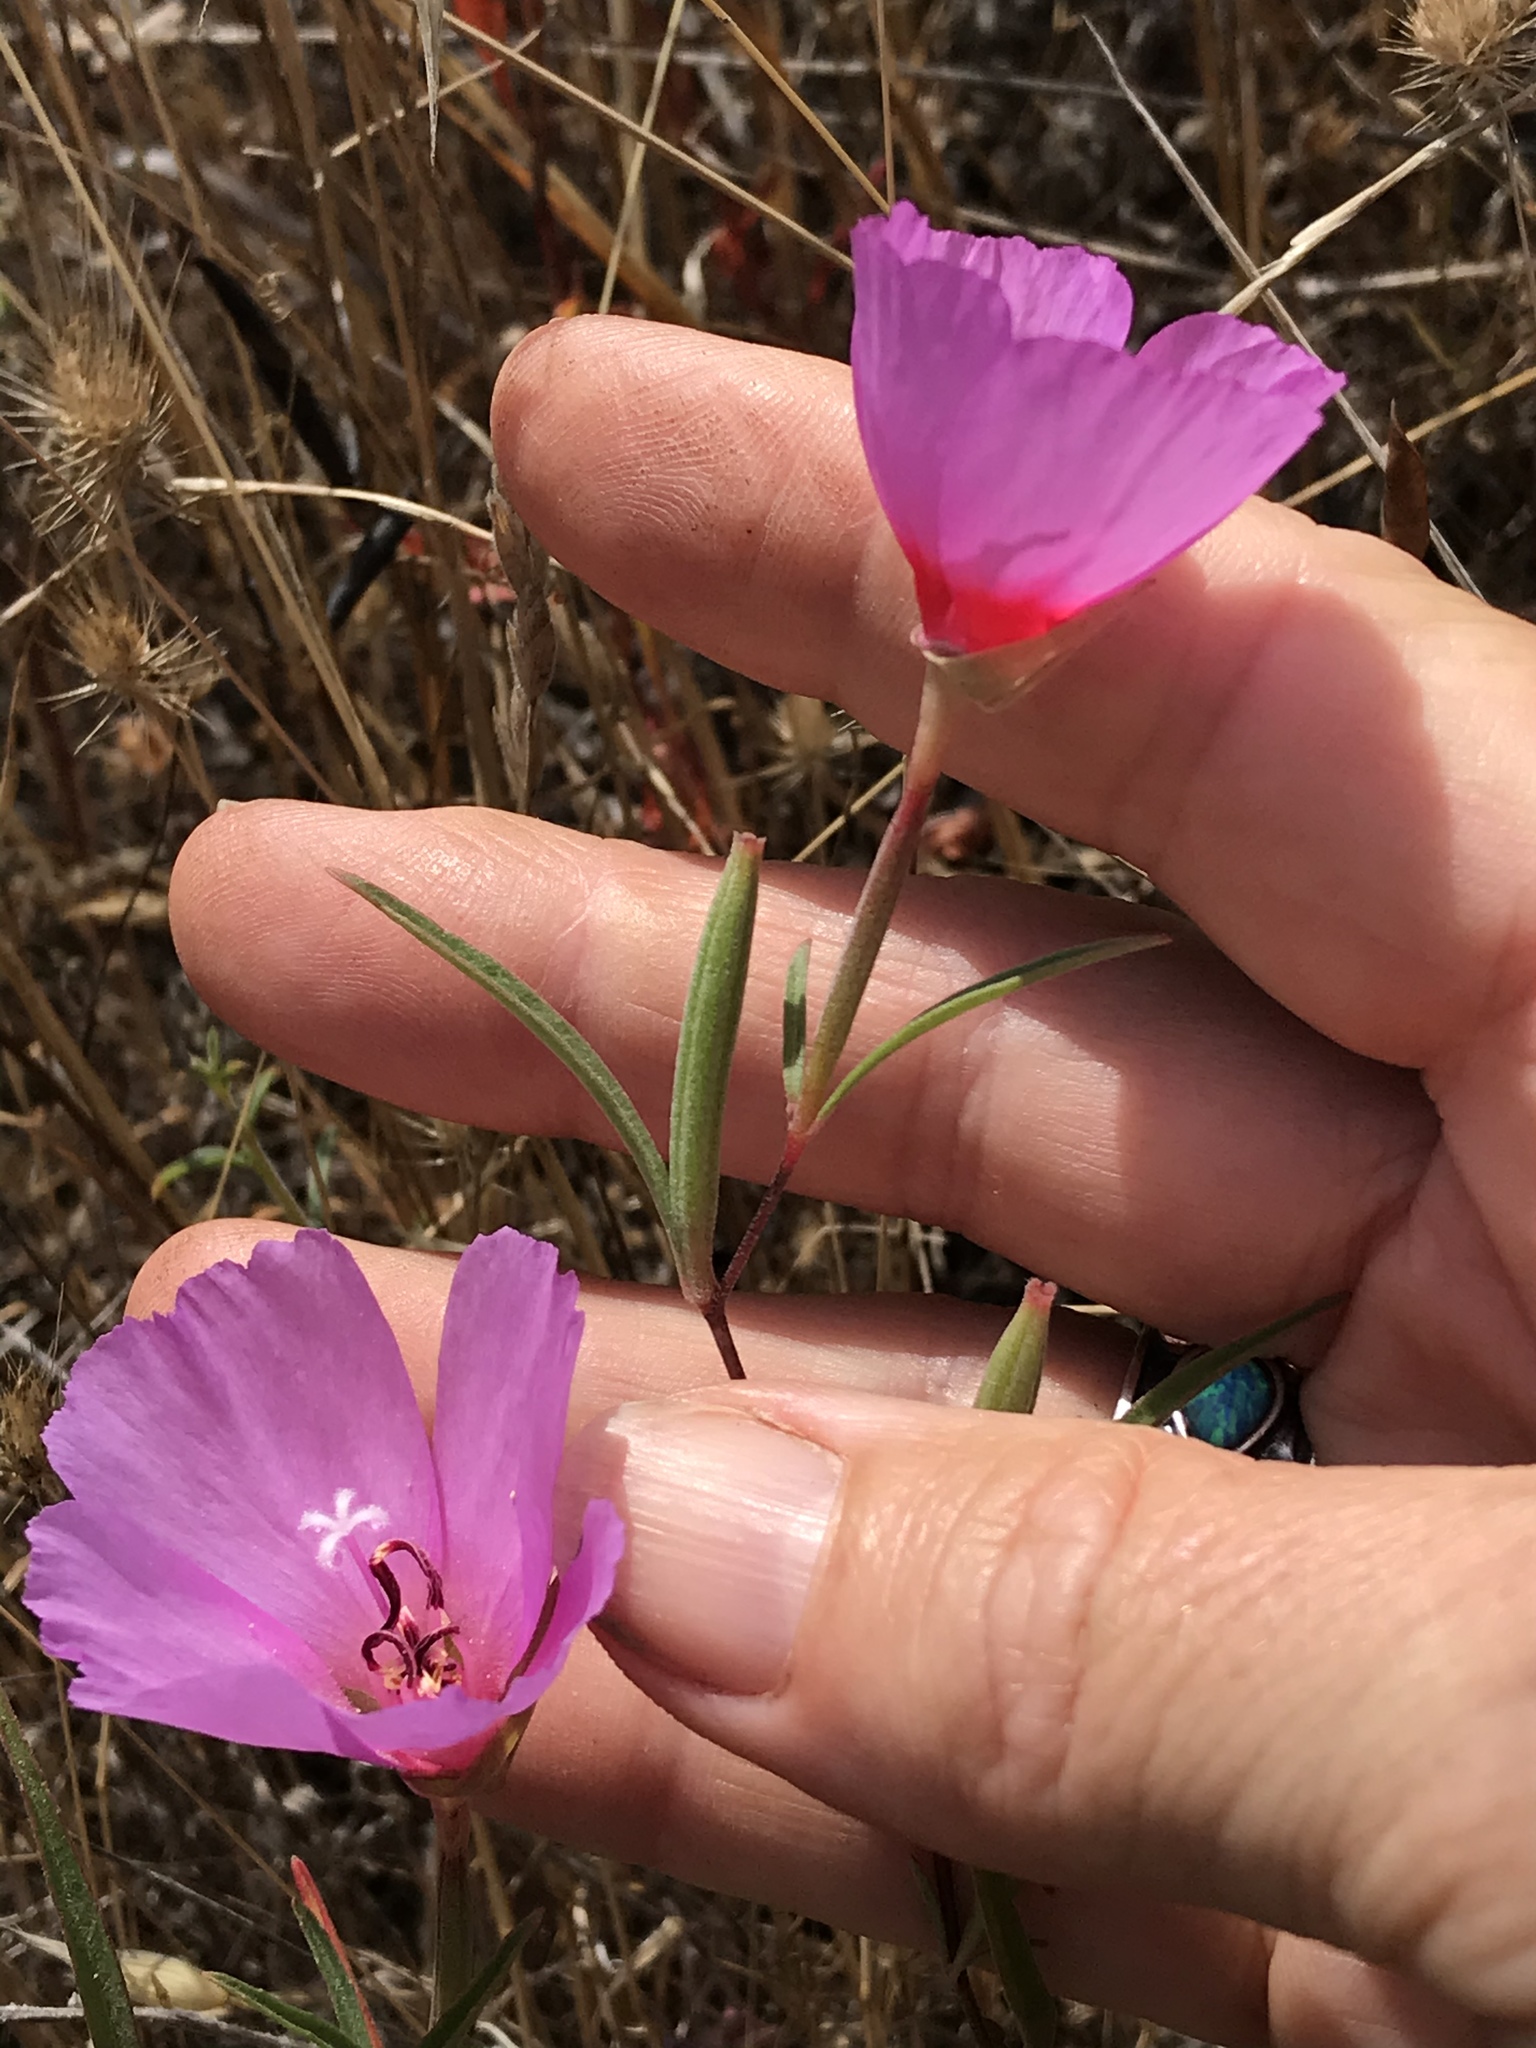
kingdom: Plantae
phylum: Tracheophyta
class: Magnoliopsida
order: Myrtales
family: Onagraceae
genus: Clarkia
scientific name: Clarkia rubicunda
